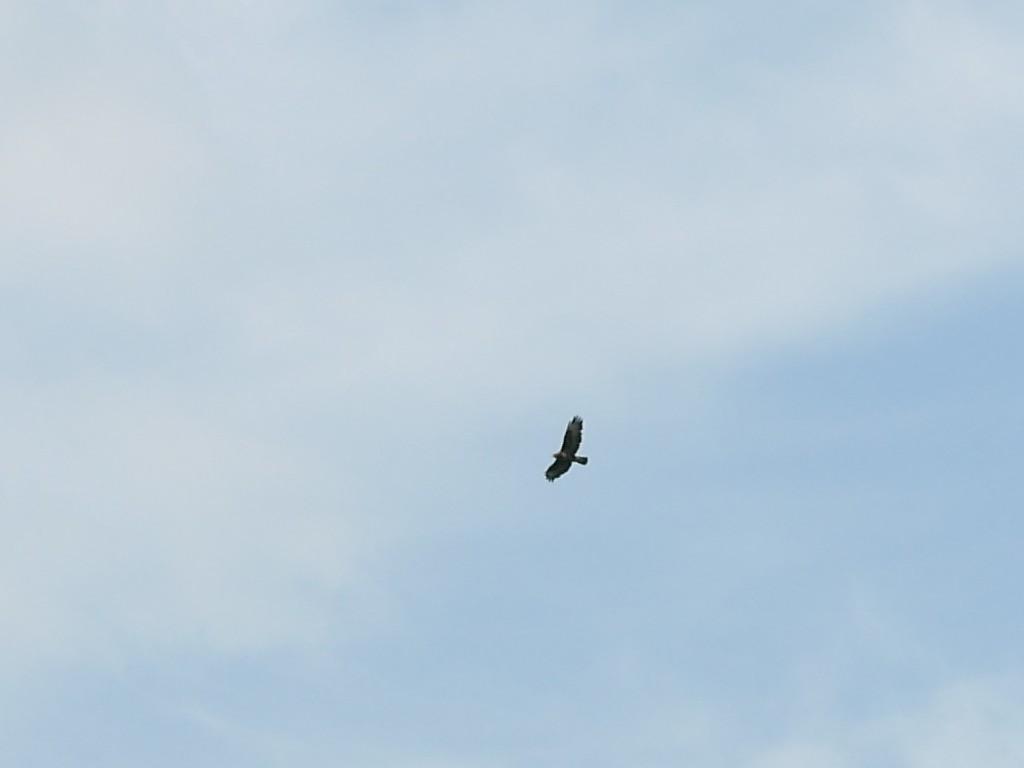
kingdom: Animalia
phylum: Chordata
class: Aves
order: Accipitriformes
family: Accipitridae
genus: Buteo
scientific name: Buteo buteo
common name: Common buzzard
